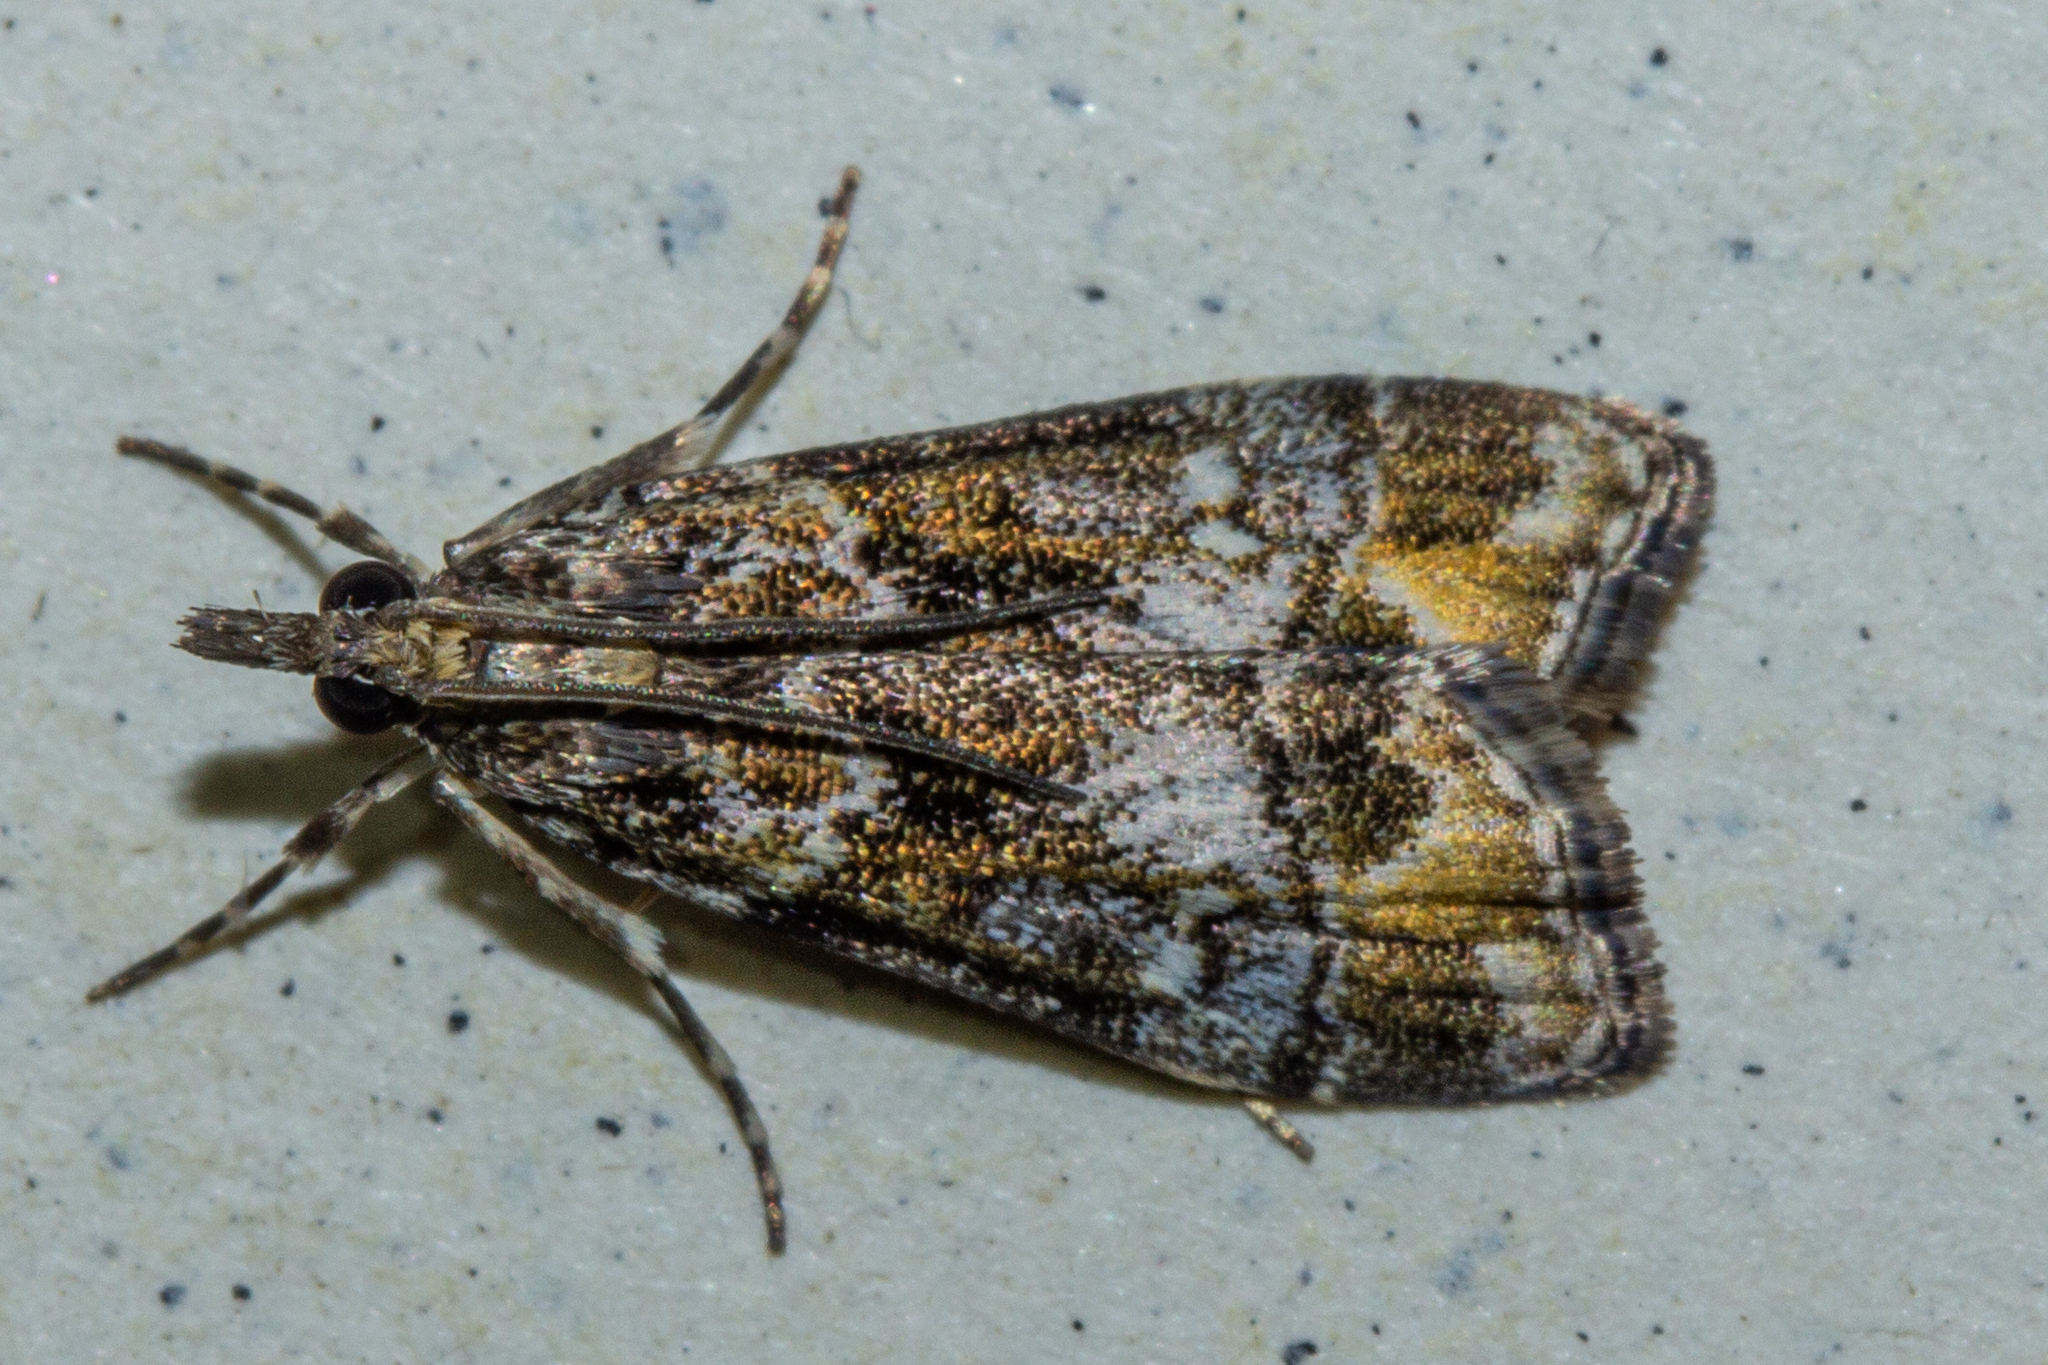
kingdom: Animalia
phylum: Arthropoda
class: Insecta
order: Lepidoptera
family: Crambidae
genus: Eudonia
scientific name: Eudonia minualis
